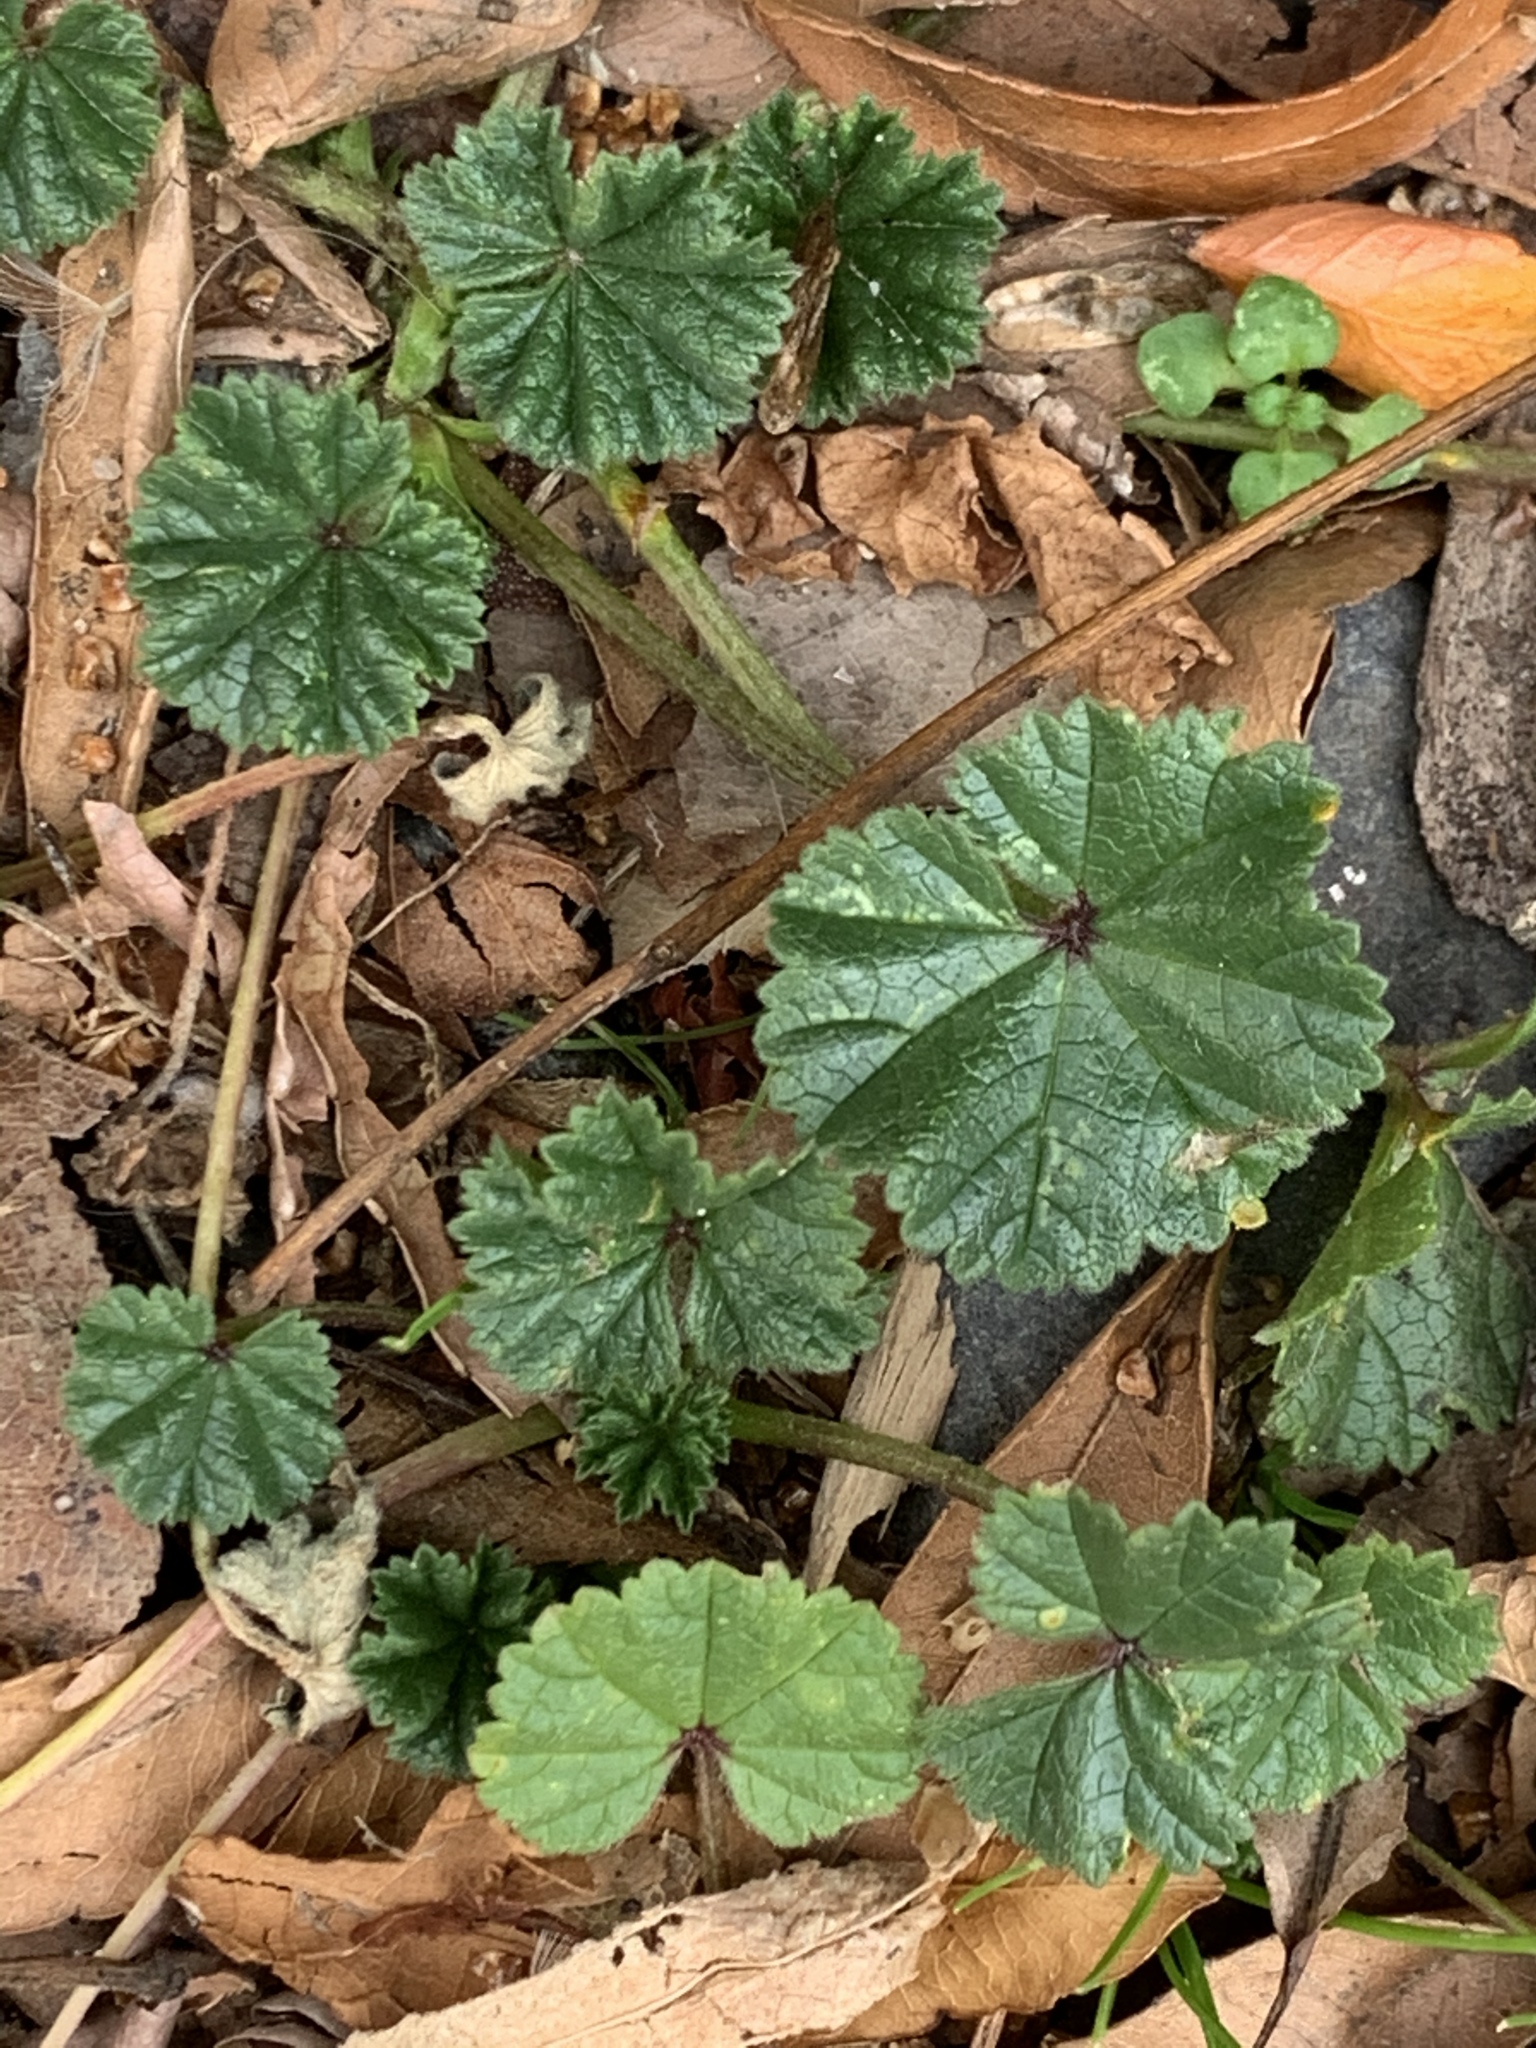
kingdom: Plantae
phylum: Tracheophyta
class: Magnoliopsida
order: Malvales
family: Malvaceae
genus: Malva
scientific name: Malva neglecta
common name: Common mallow
